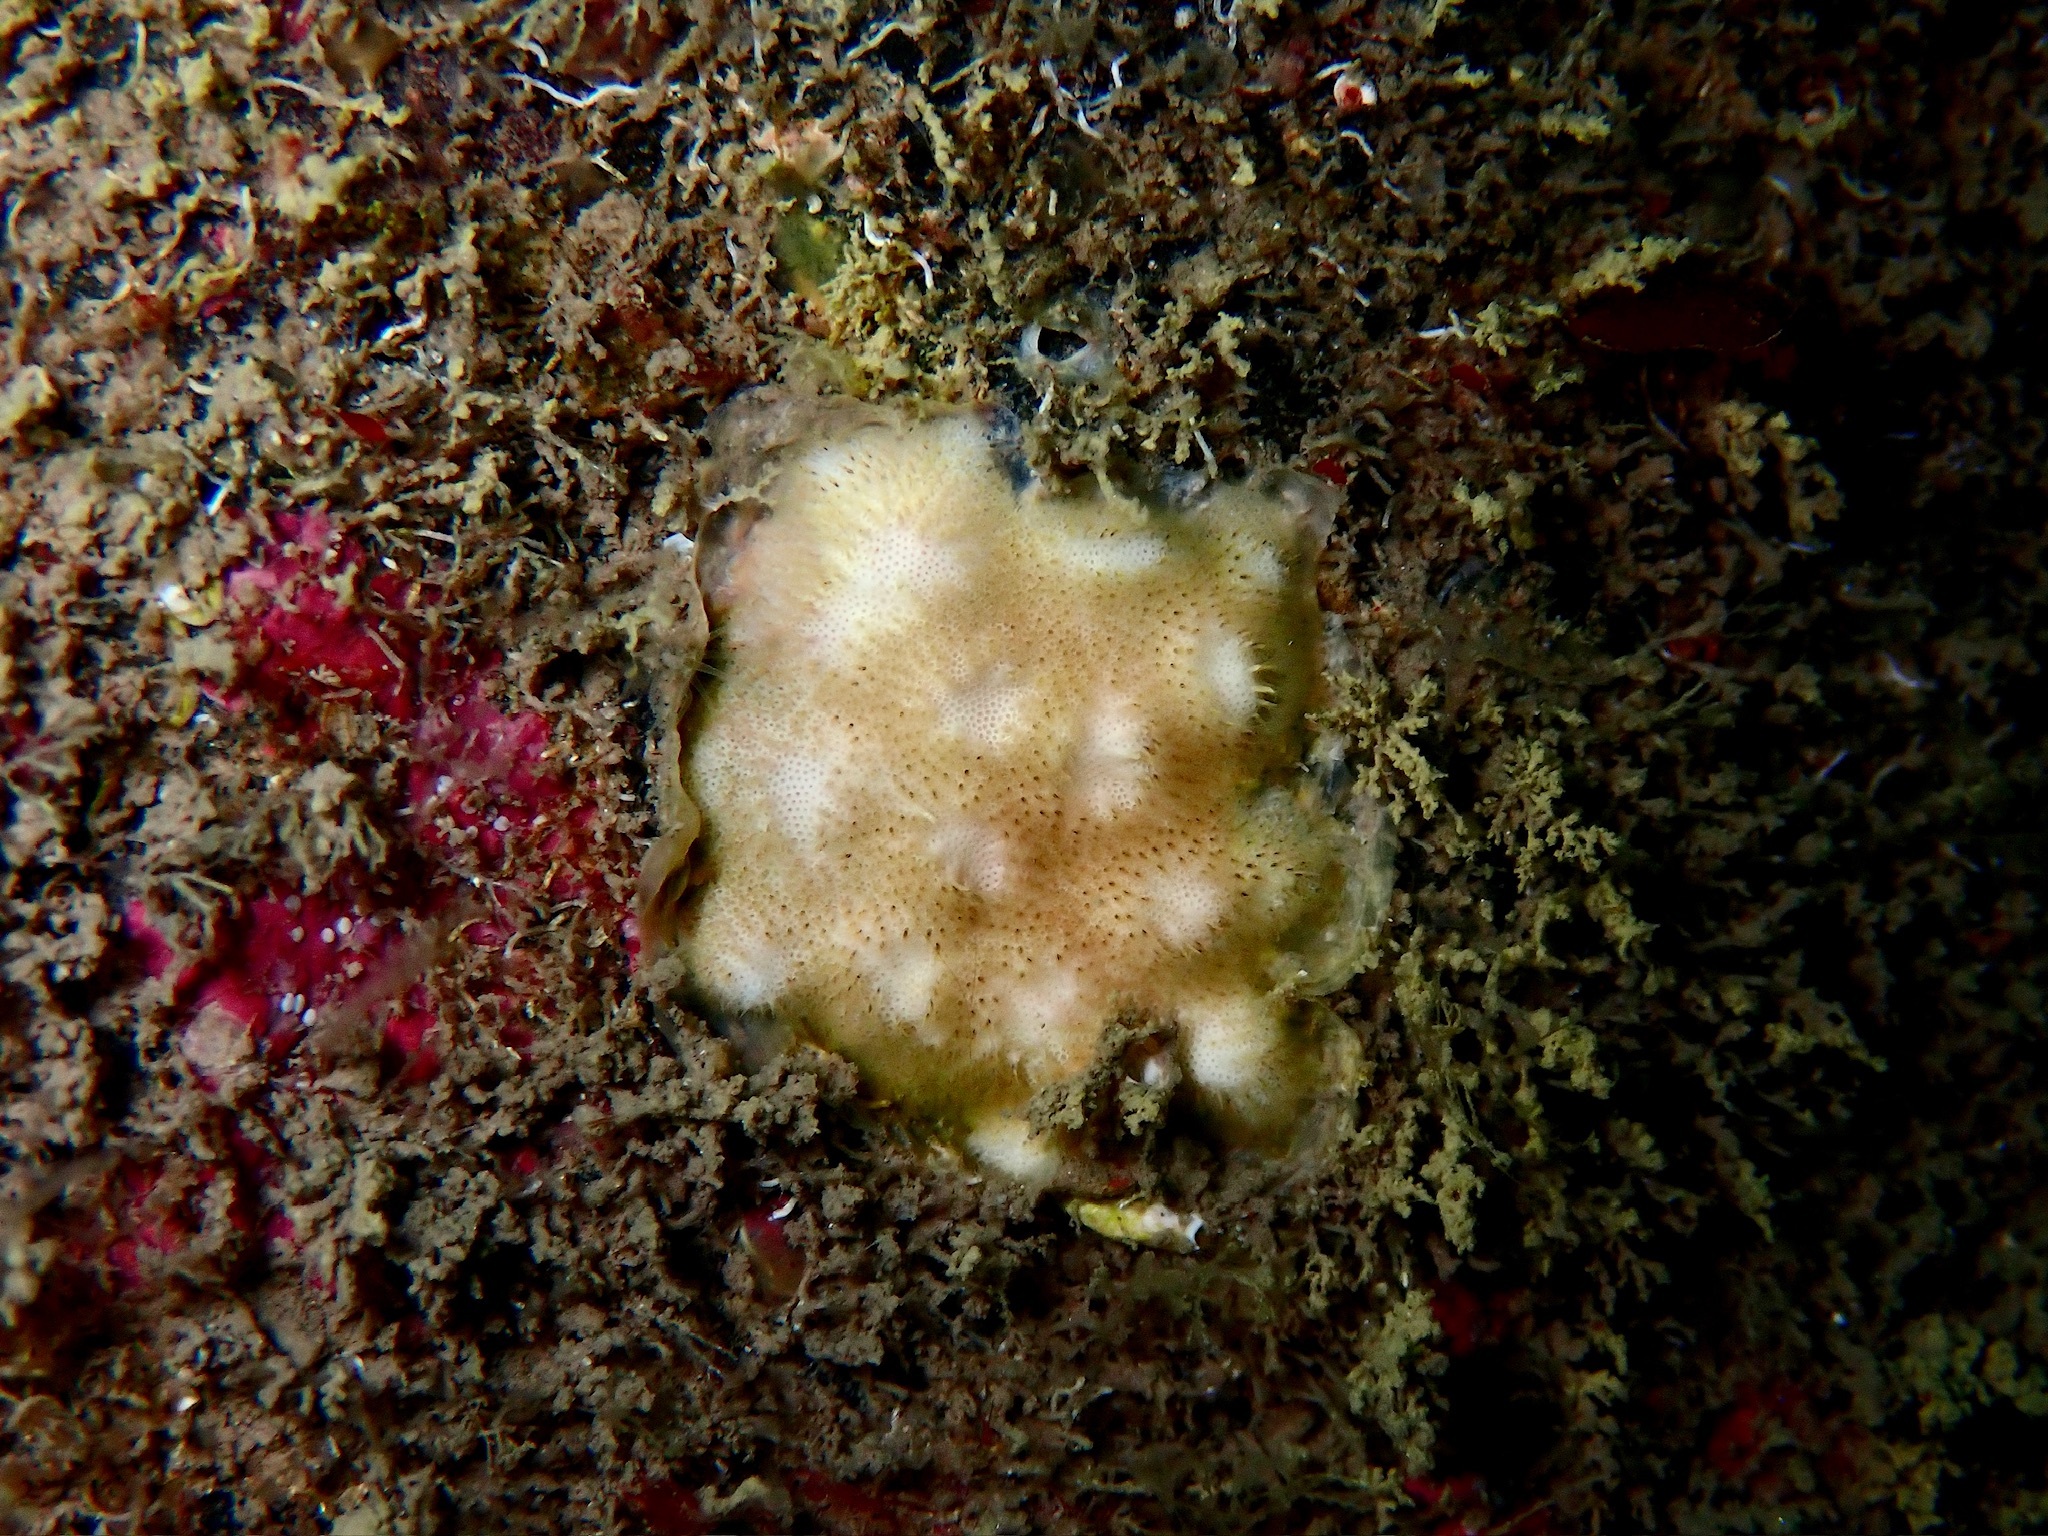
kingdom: Animalia
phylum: Bryozoa
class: Stenolaemata
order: Cyclostomatida
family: Lichenoporidae
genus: Disporella
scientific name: Disporella hispida
